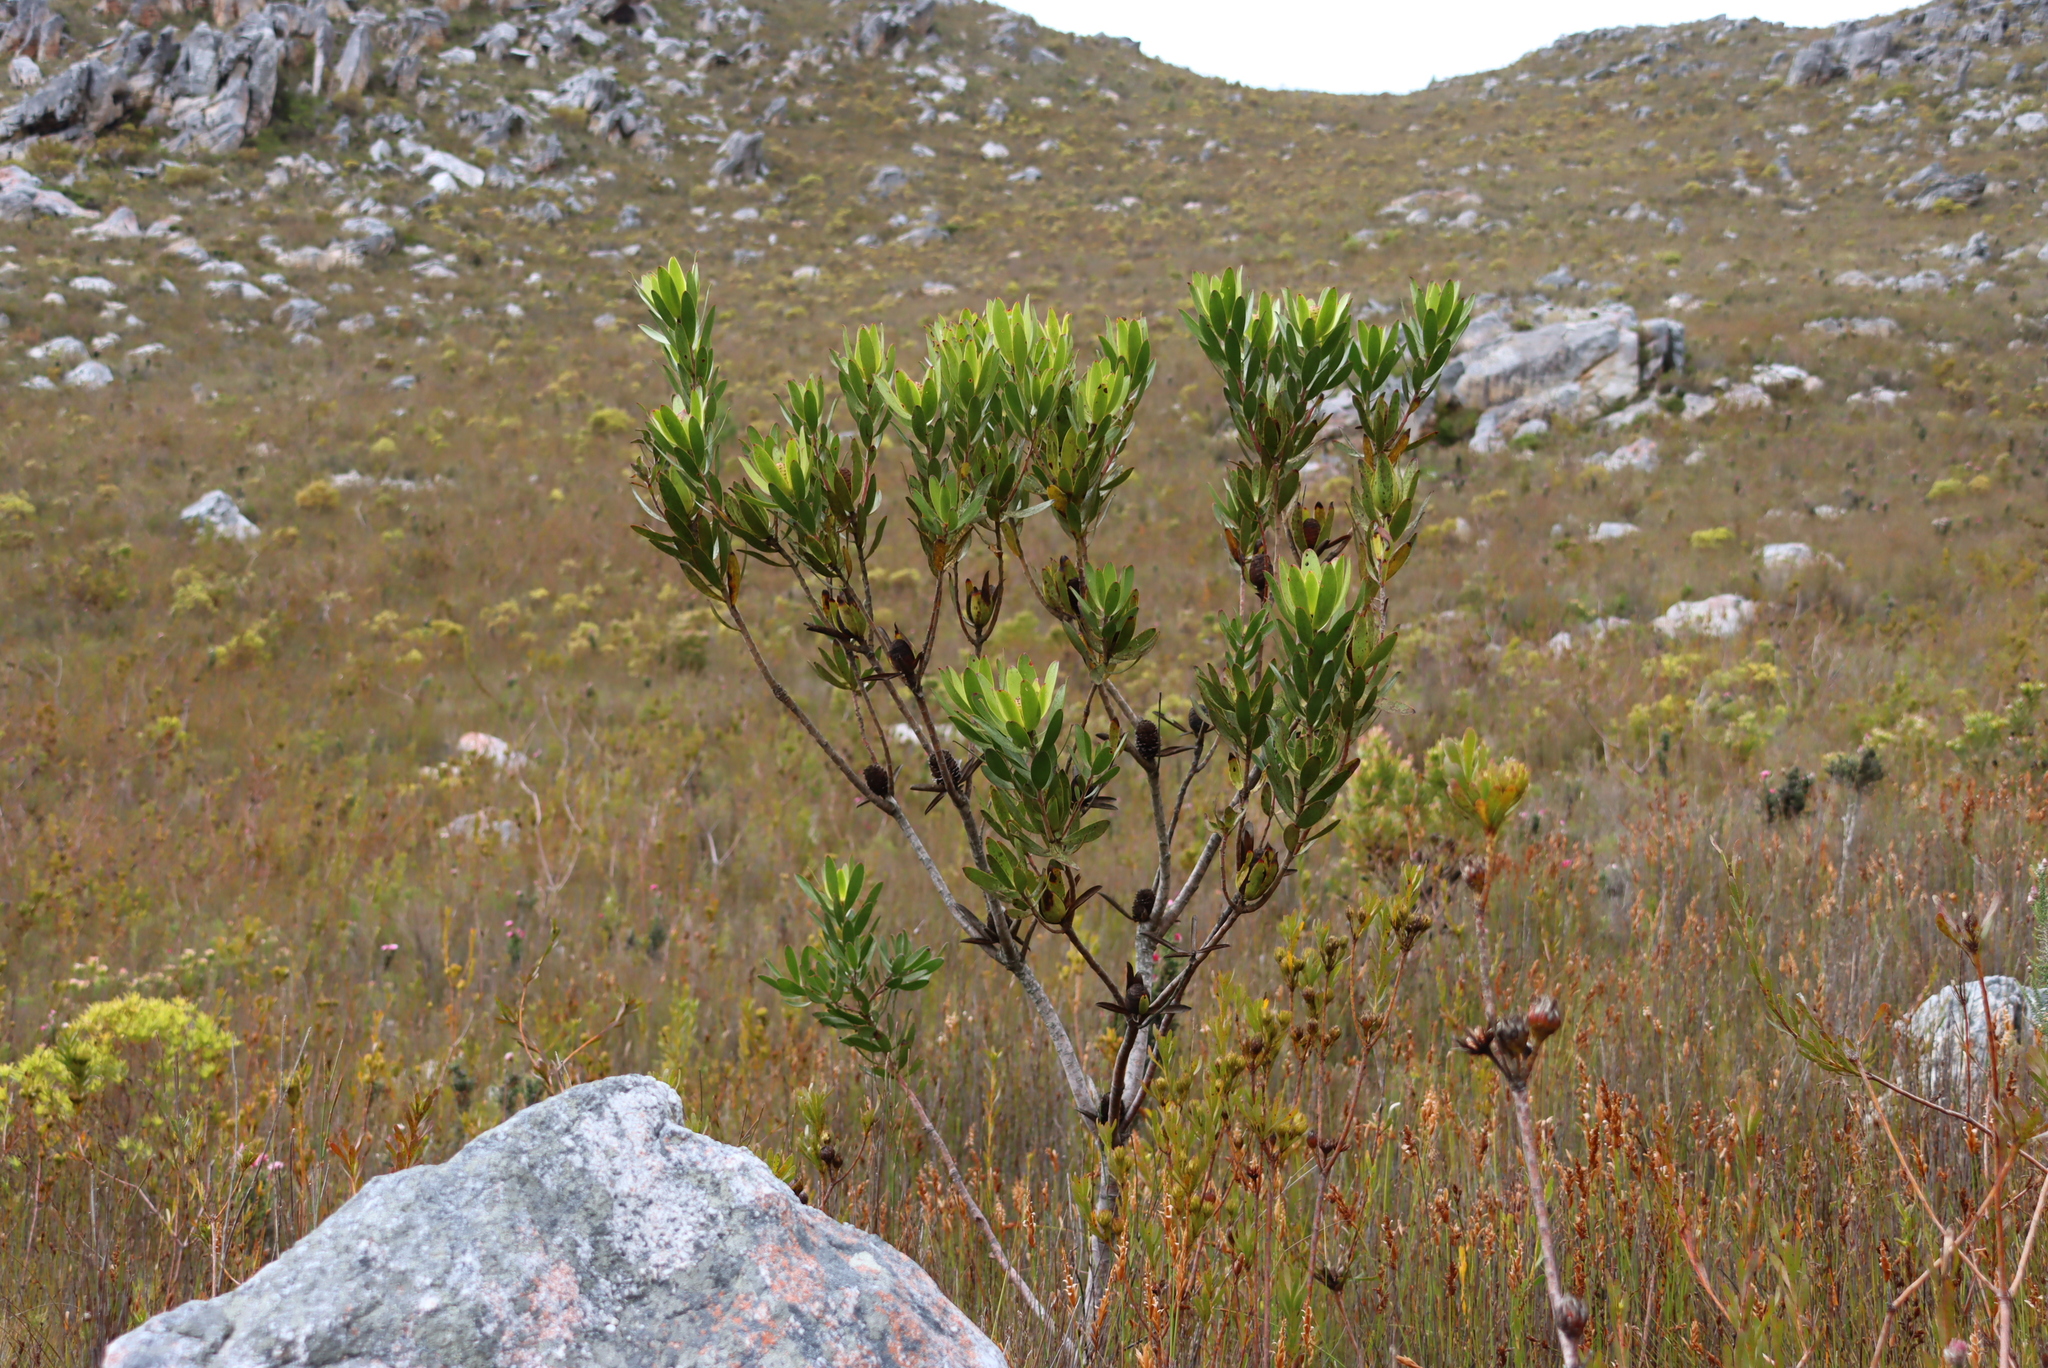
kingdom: Plantae
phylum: Tracheophyta
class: Magnoliopsida
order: Proteales
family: Proteaceae
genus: Leucadendron
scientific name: Leucadendron gandogeri
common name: Broad-leaf conebush
